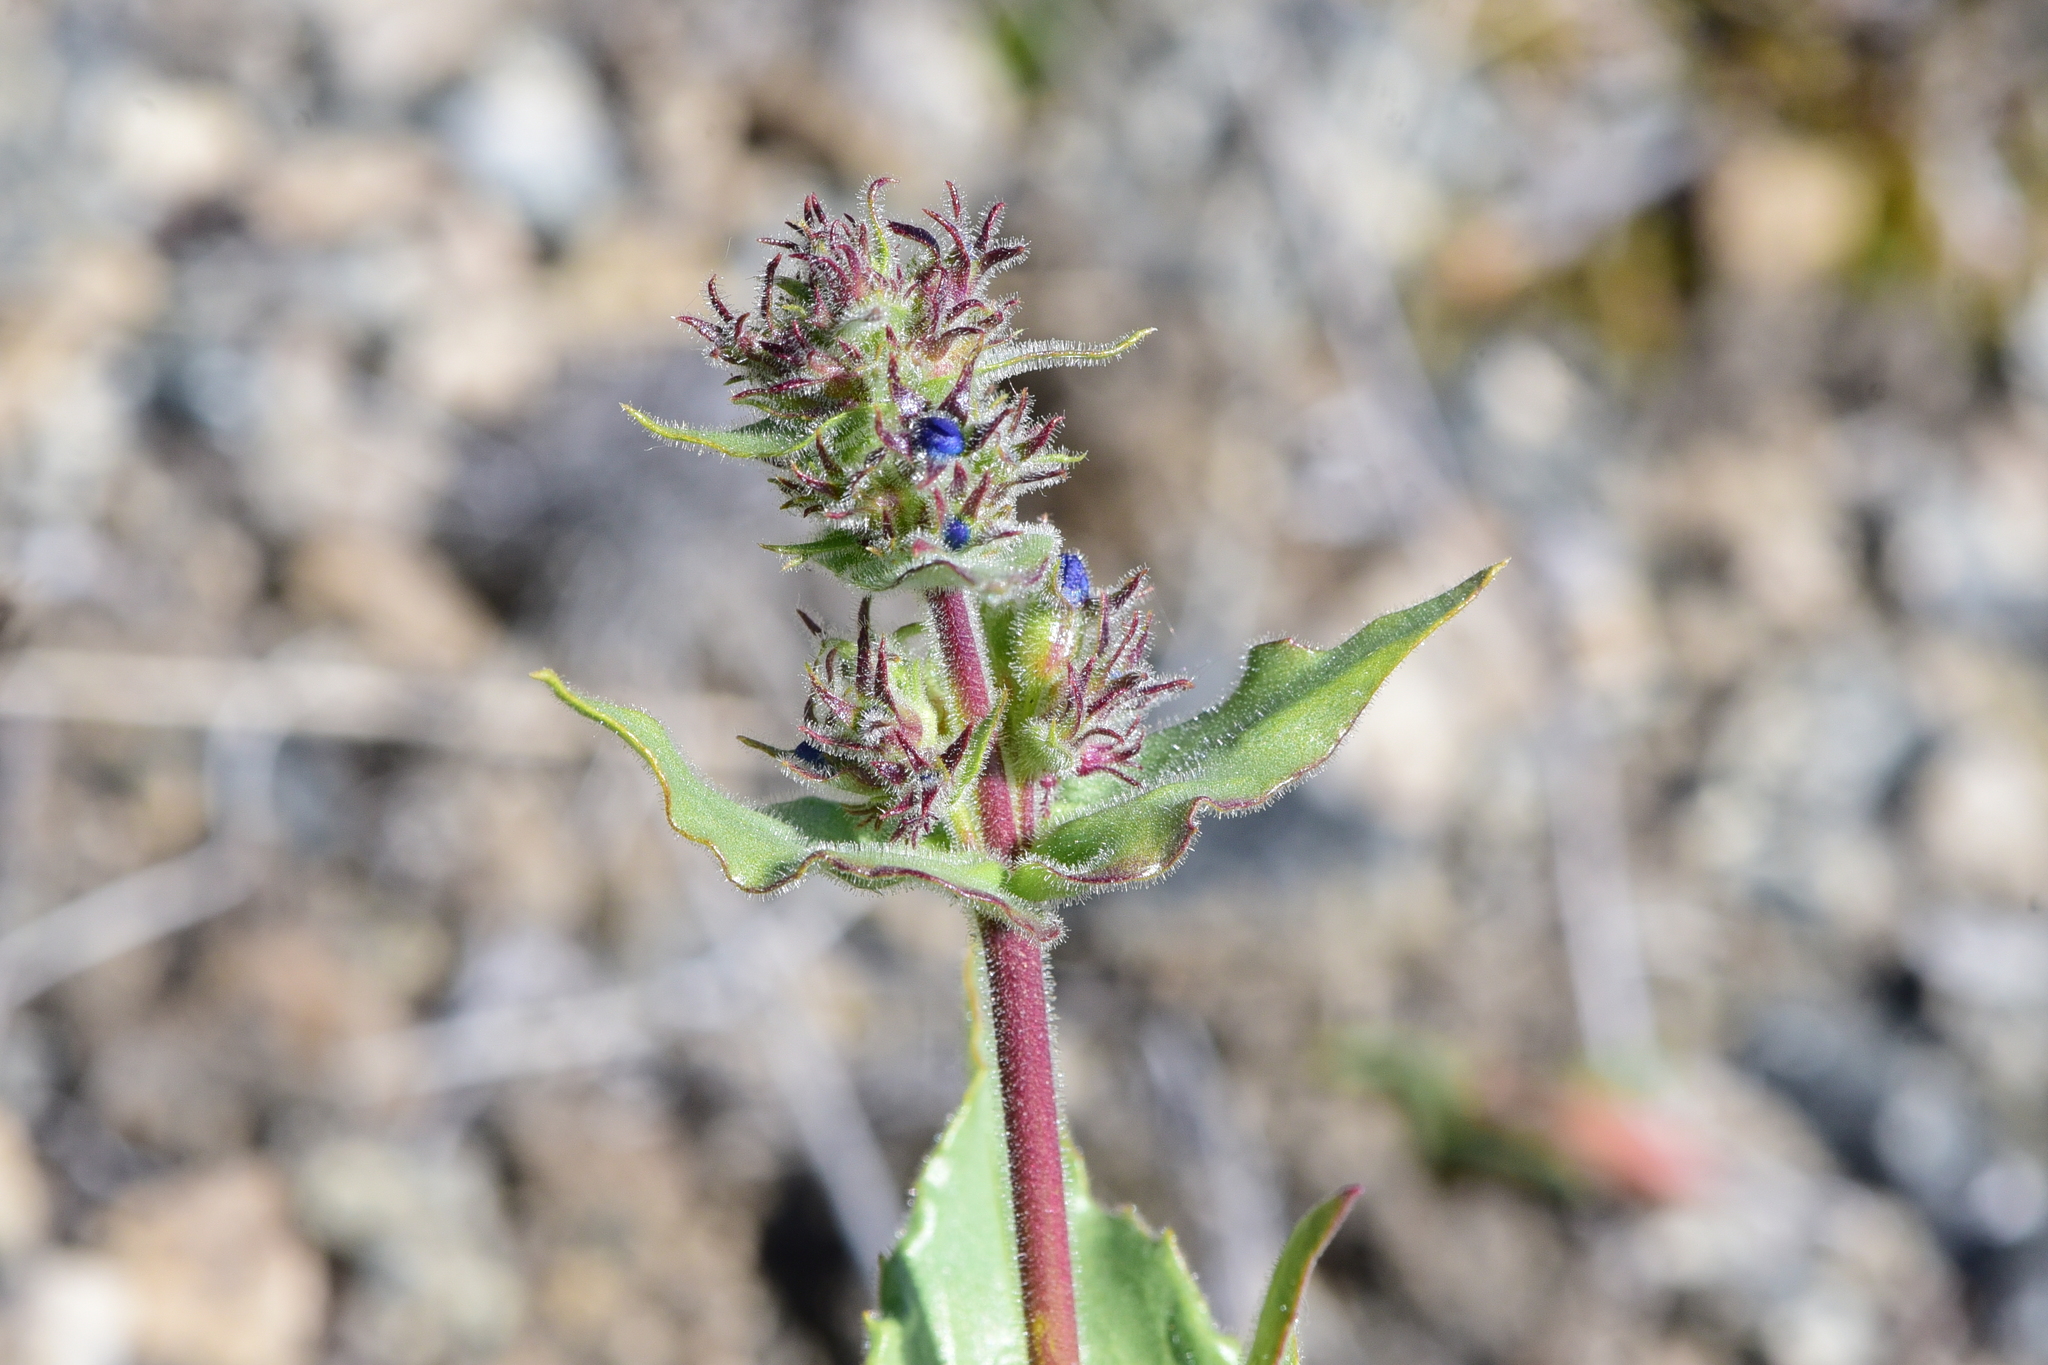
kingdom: Plantae
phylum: Tracheophyta
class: Magnoliopsida
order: Lamiales
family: Plantaginaceae
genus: Penstemon
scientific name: Penstemon pruinosus
